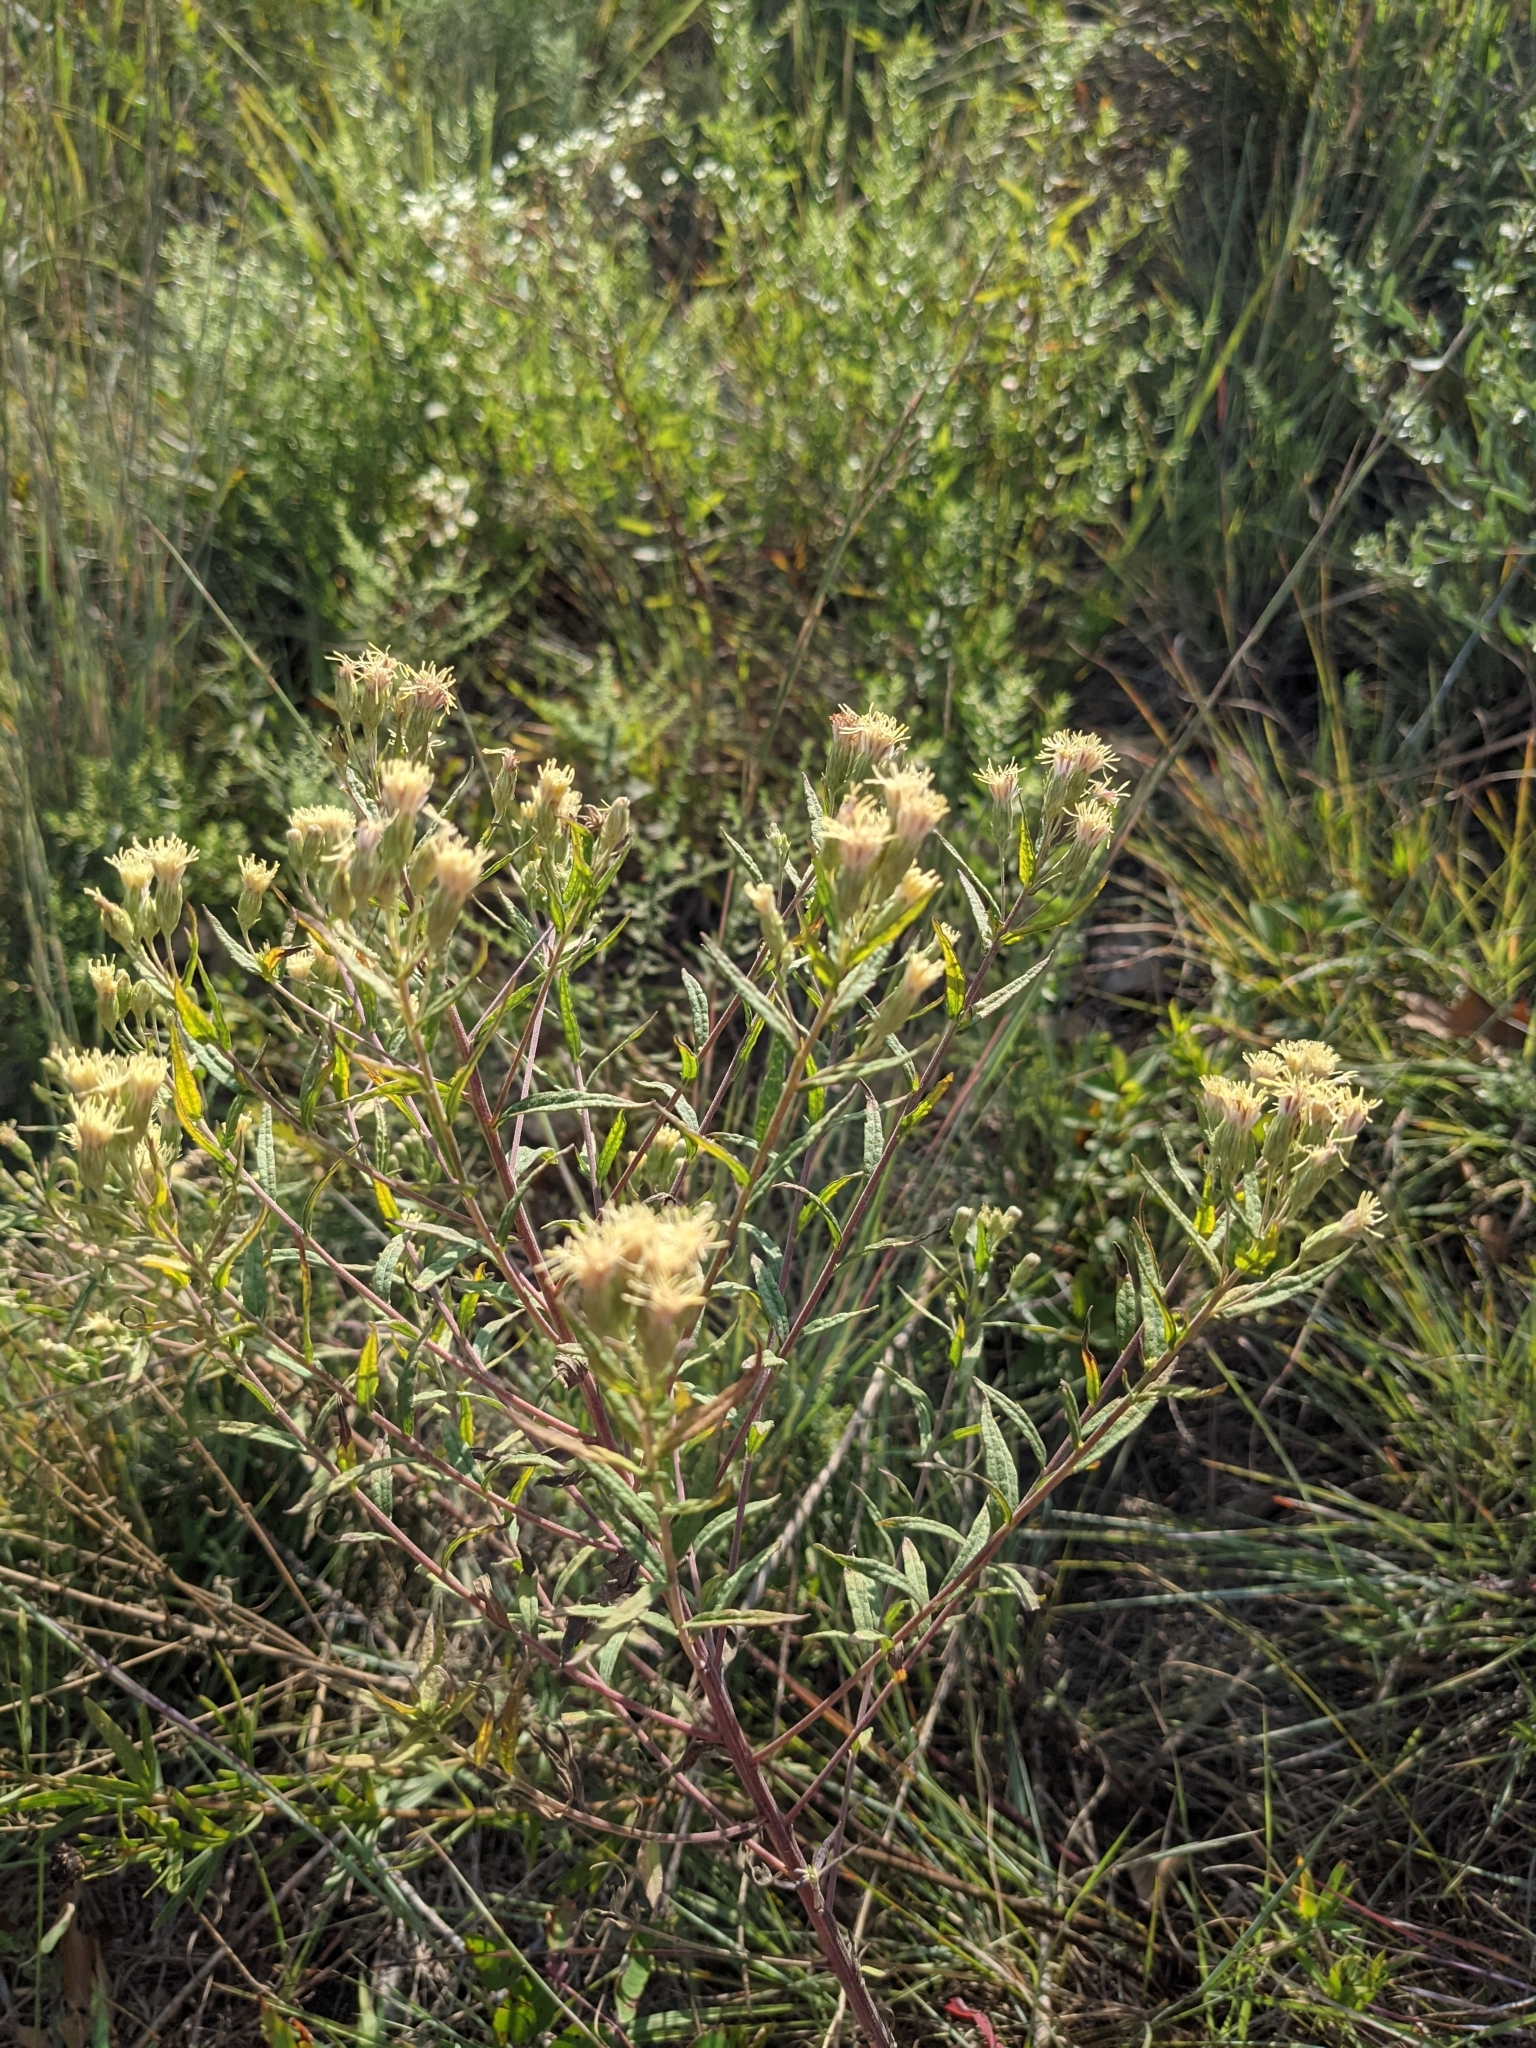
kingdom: Plantae
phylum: Tracheophyta
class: Magnoliopsida
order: Asterales
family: Asteraceae
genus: Brickellia
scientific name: Brickellia eupatorioides
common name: False boneset
